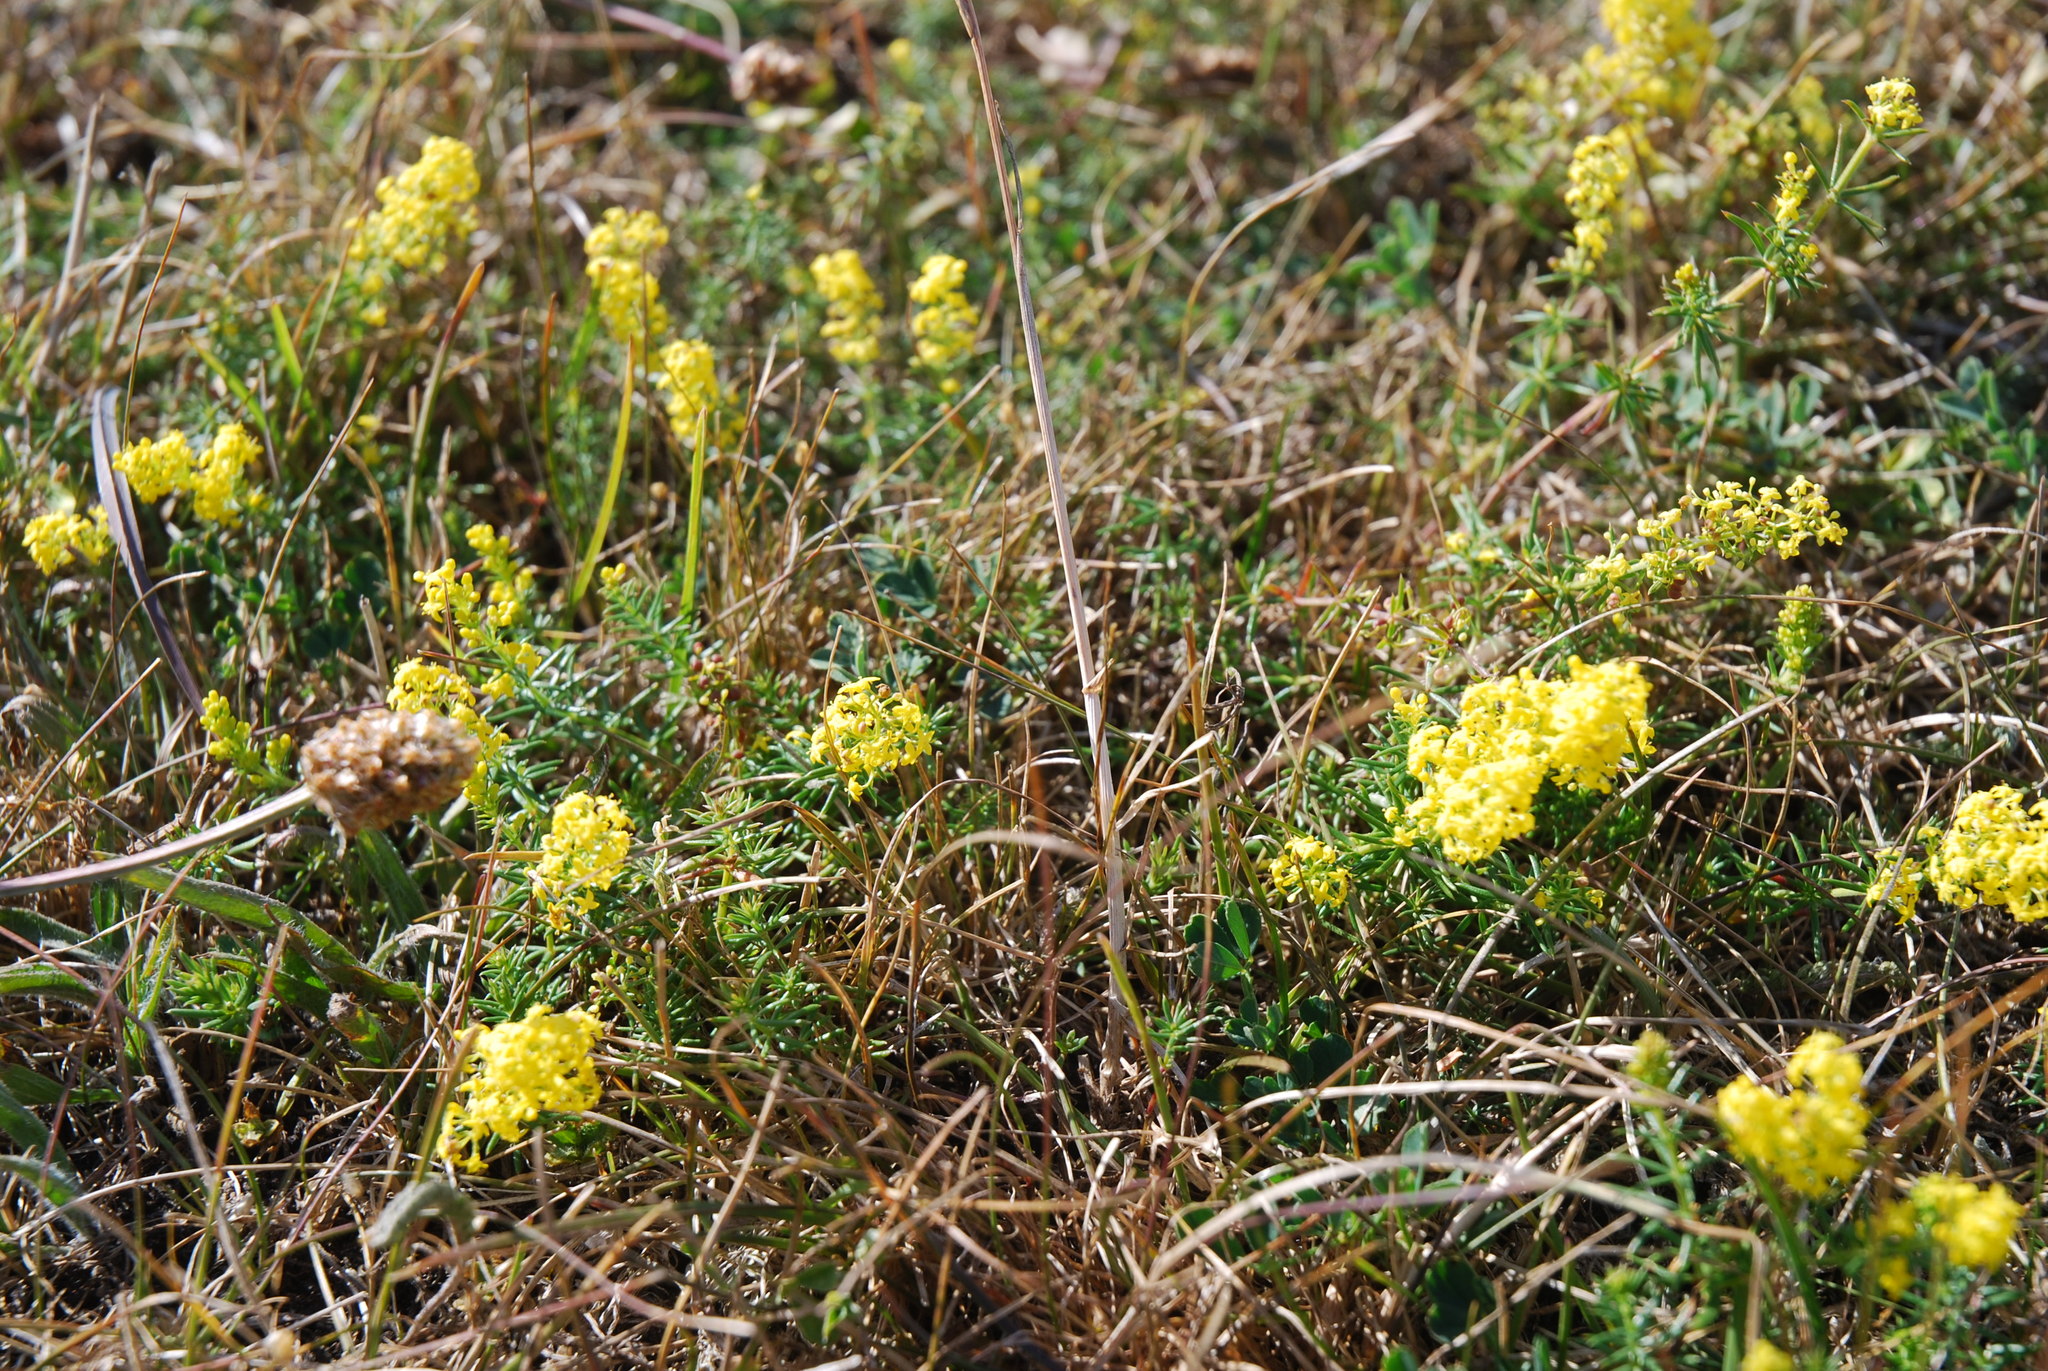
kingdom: Plantae
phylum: Tracheophyta
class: Magnoliopsida
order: Gentianales
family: Rubiaceae
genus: Galium
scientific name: Galium verum
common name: Lady's bedstraw
